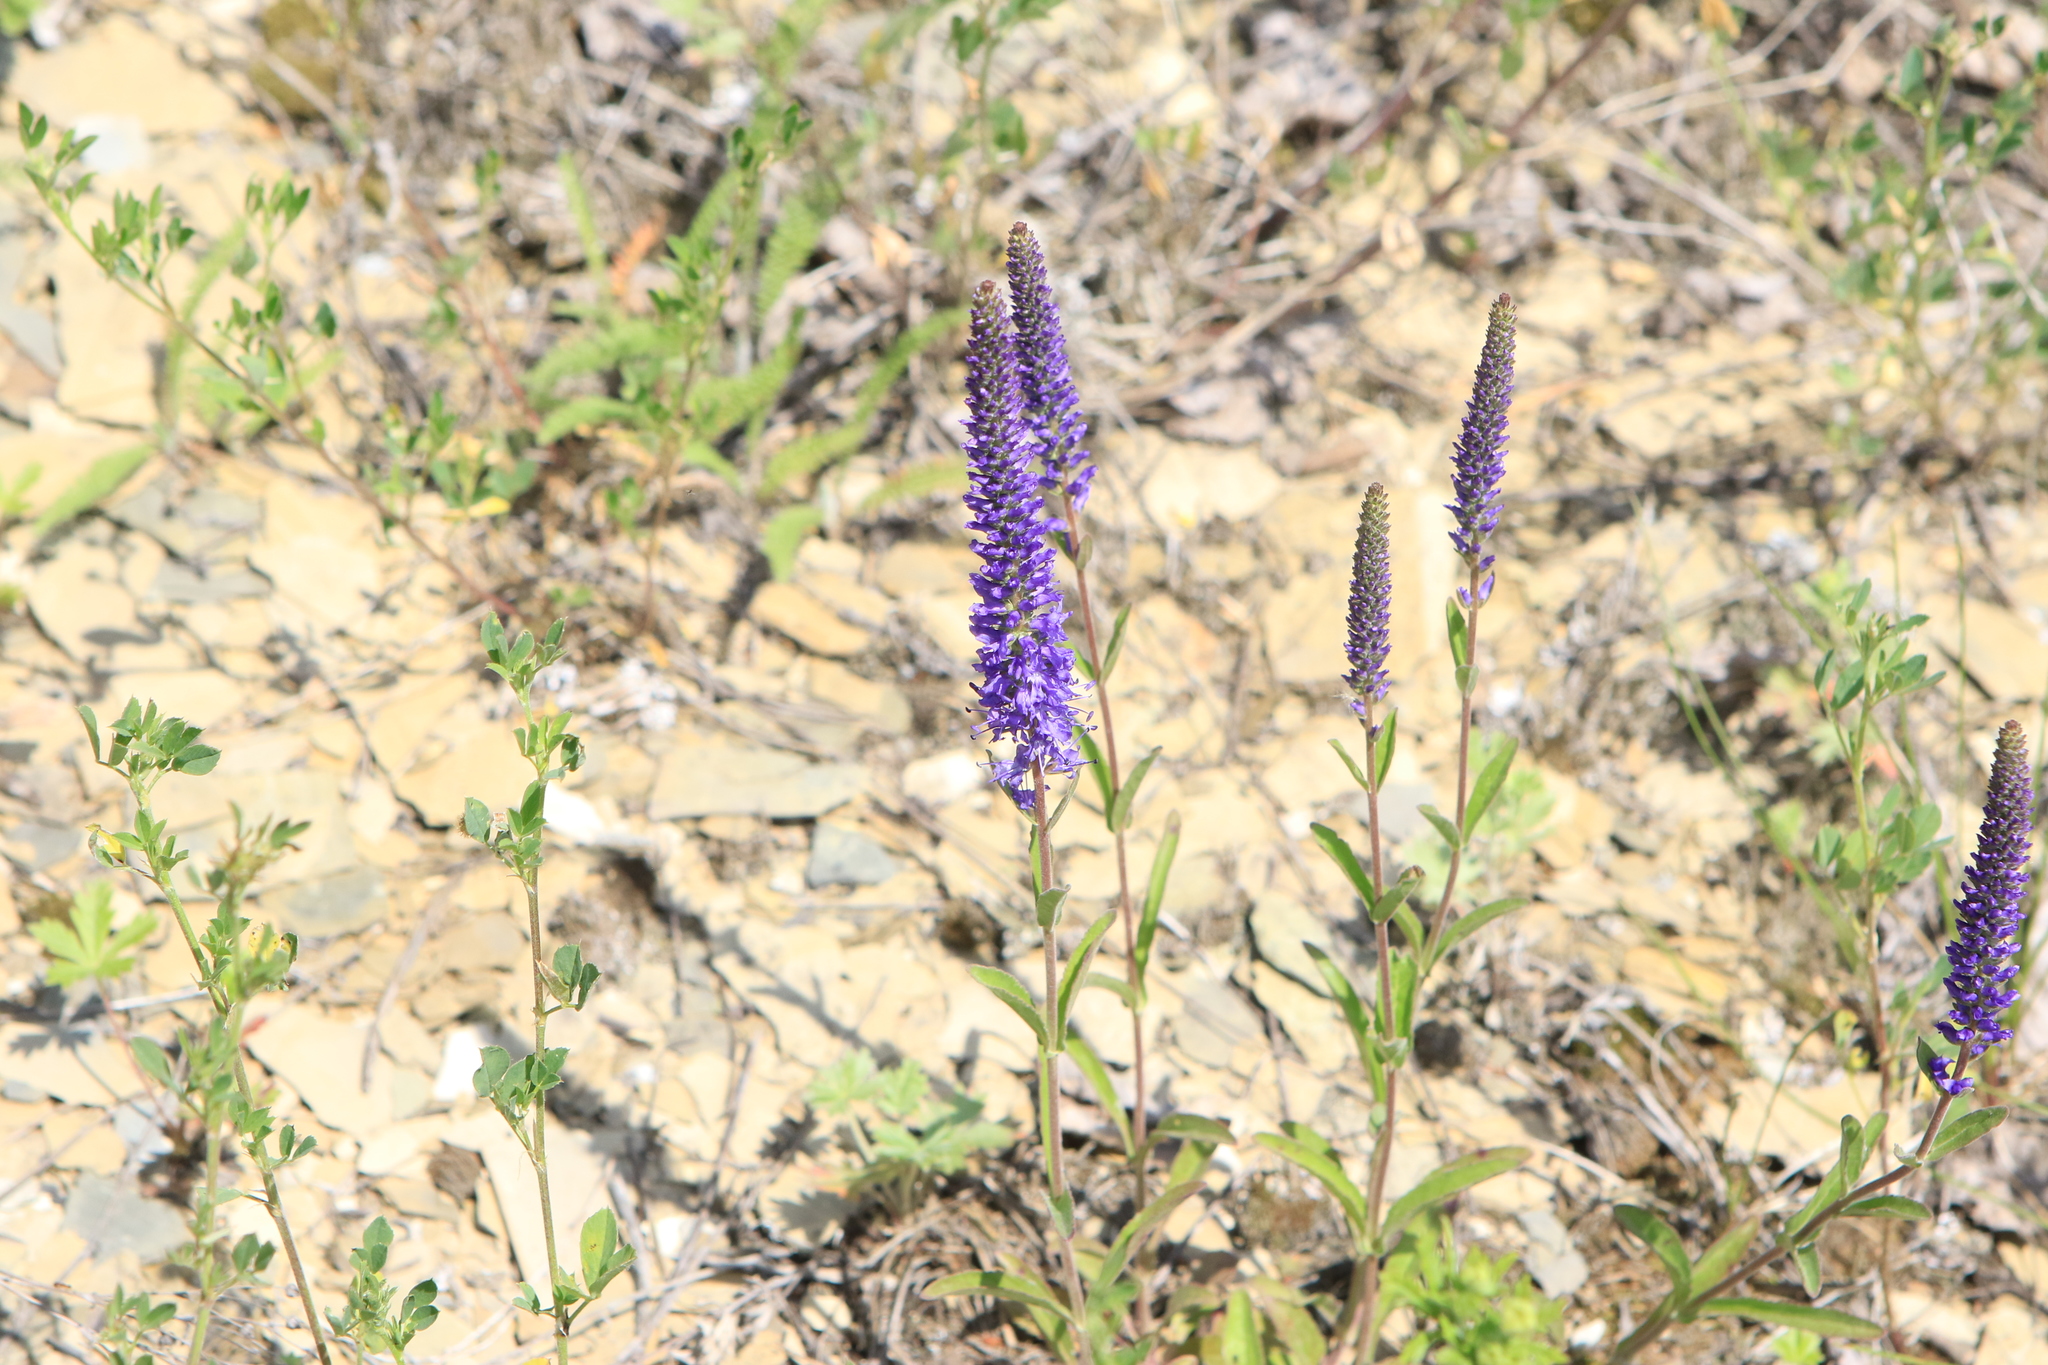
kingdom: Plantae
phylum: Tracheophyta
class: Magnoliopsida
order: Lamiales
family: Plantaginaceae
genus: Veronica
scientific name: Veronica spicata
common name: Spiked speedwell
